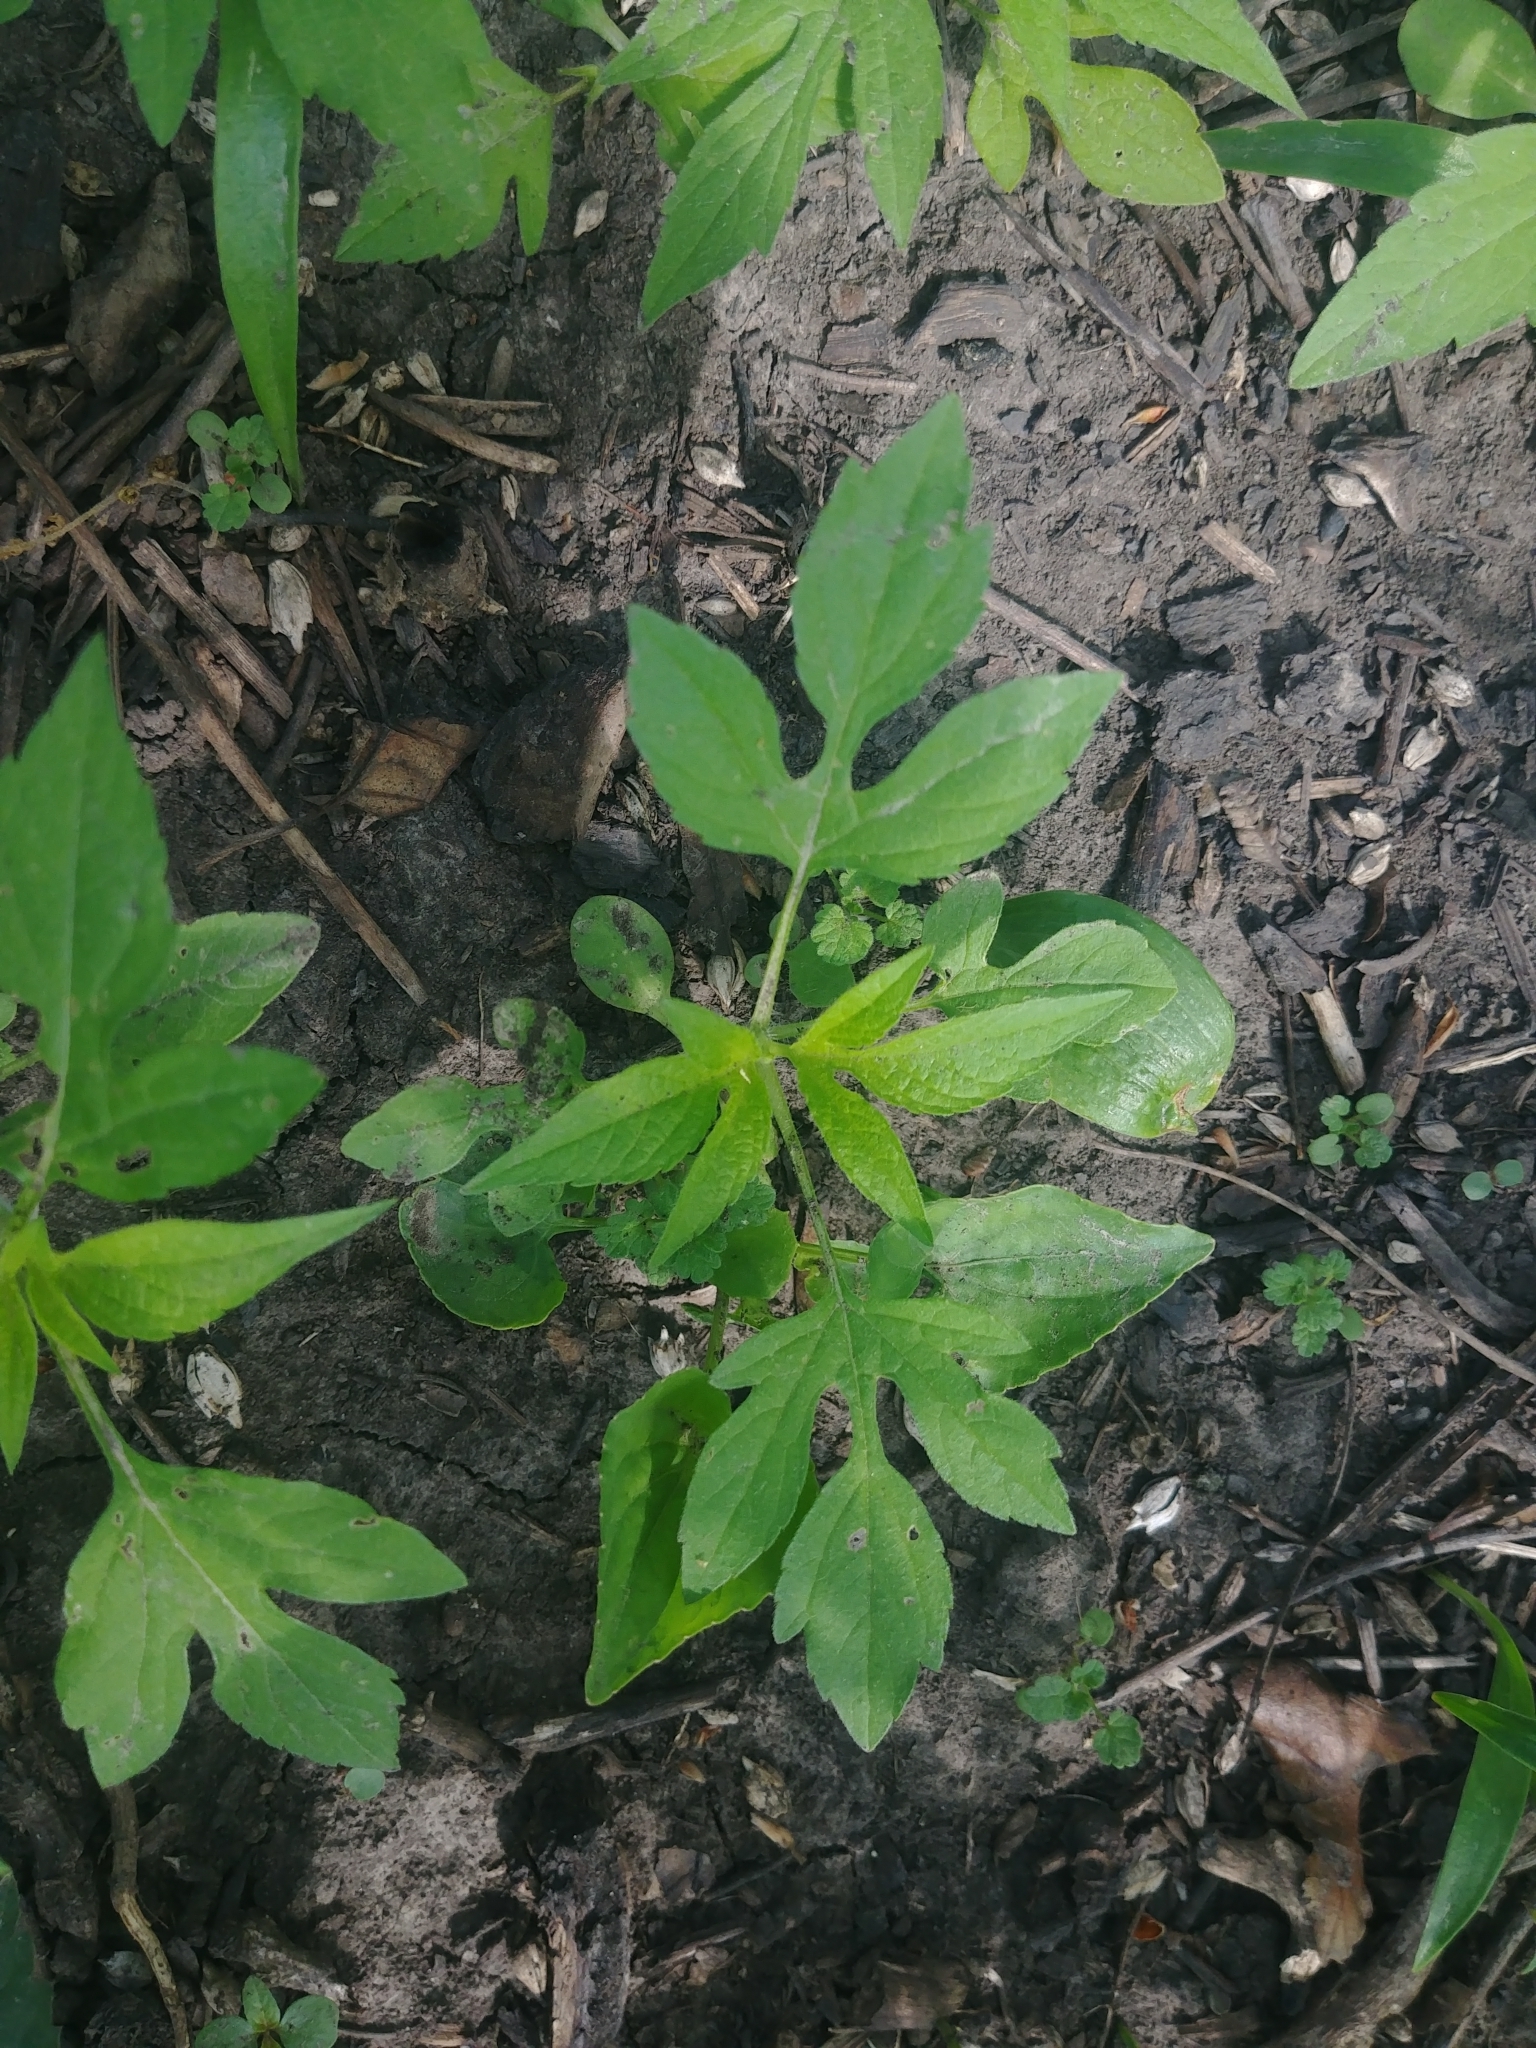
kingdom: Plantae
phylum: Tracheophyta
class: Magnoliopsida
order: Asterales
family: Asteraceae
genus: Ambrosia
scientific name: Ambrosia trifida
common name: Giant ragweed
